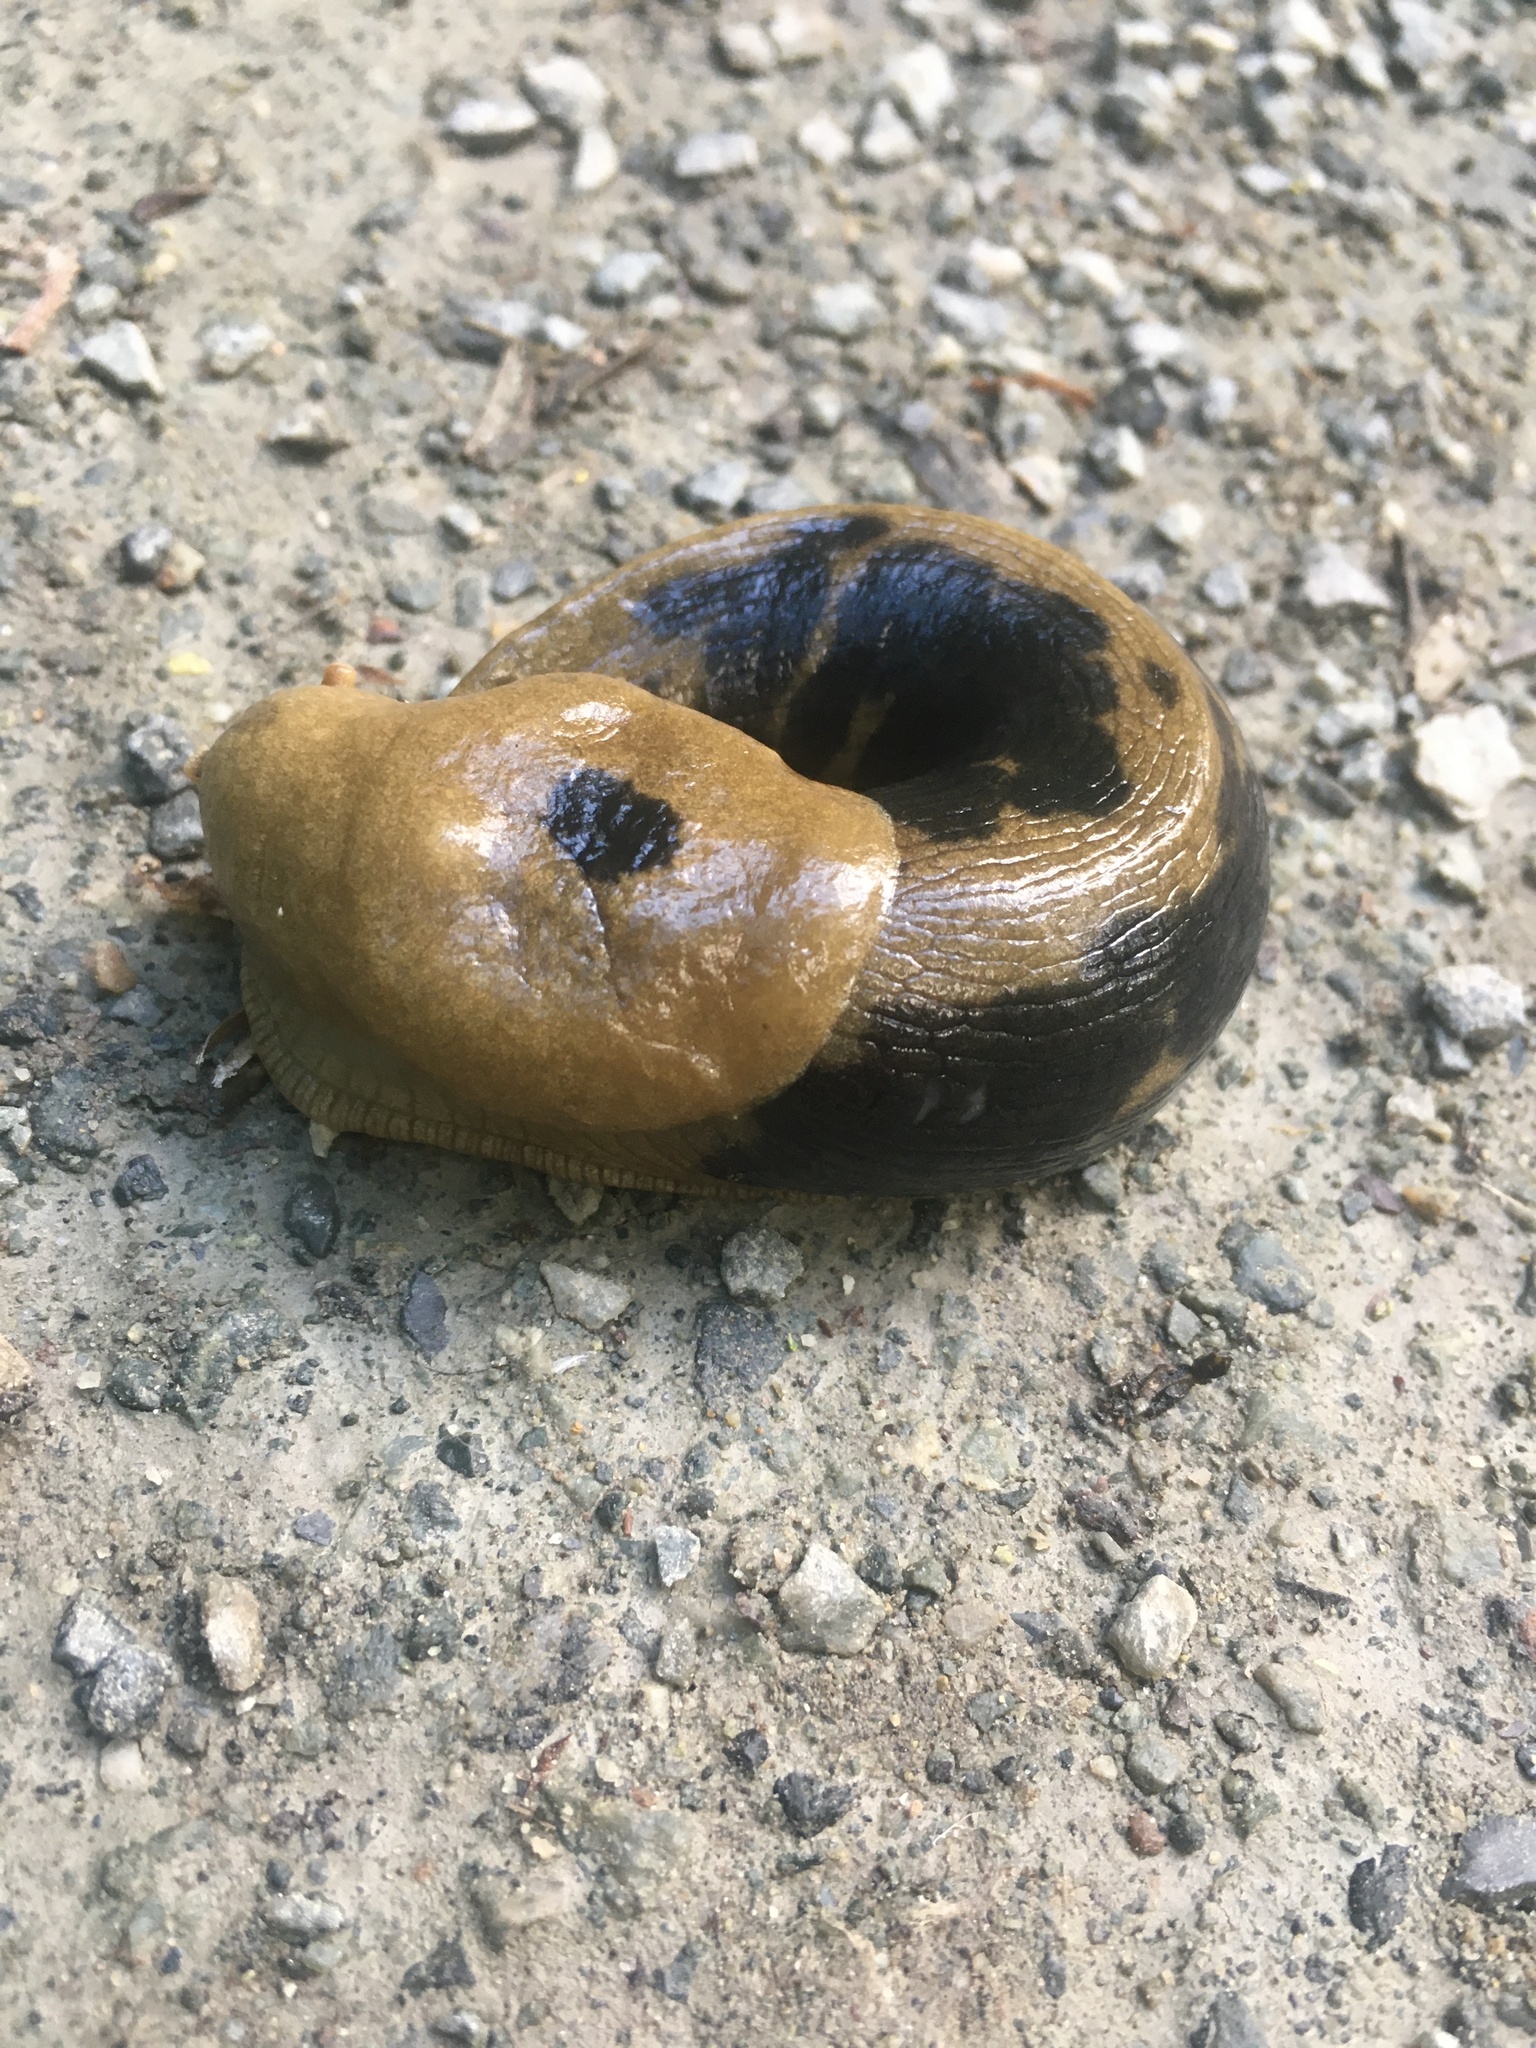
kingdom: Animalia
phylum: Mollusca
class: Gastropoda
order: Stylommatophora
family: Ariolimacidae
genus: Ariolimax
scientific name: Ariolimax columbianus
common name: Pacific banana slug
